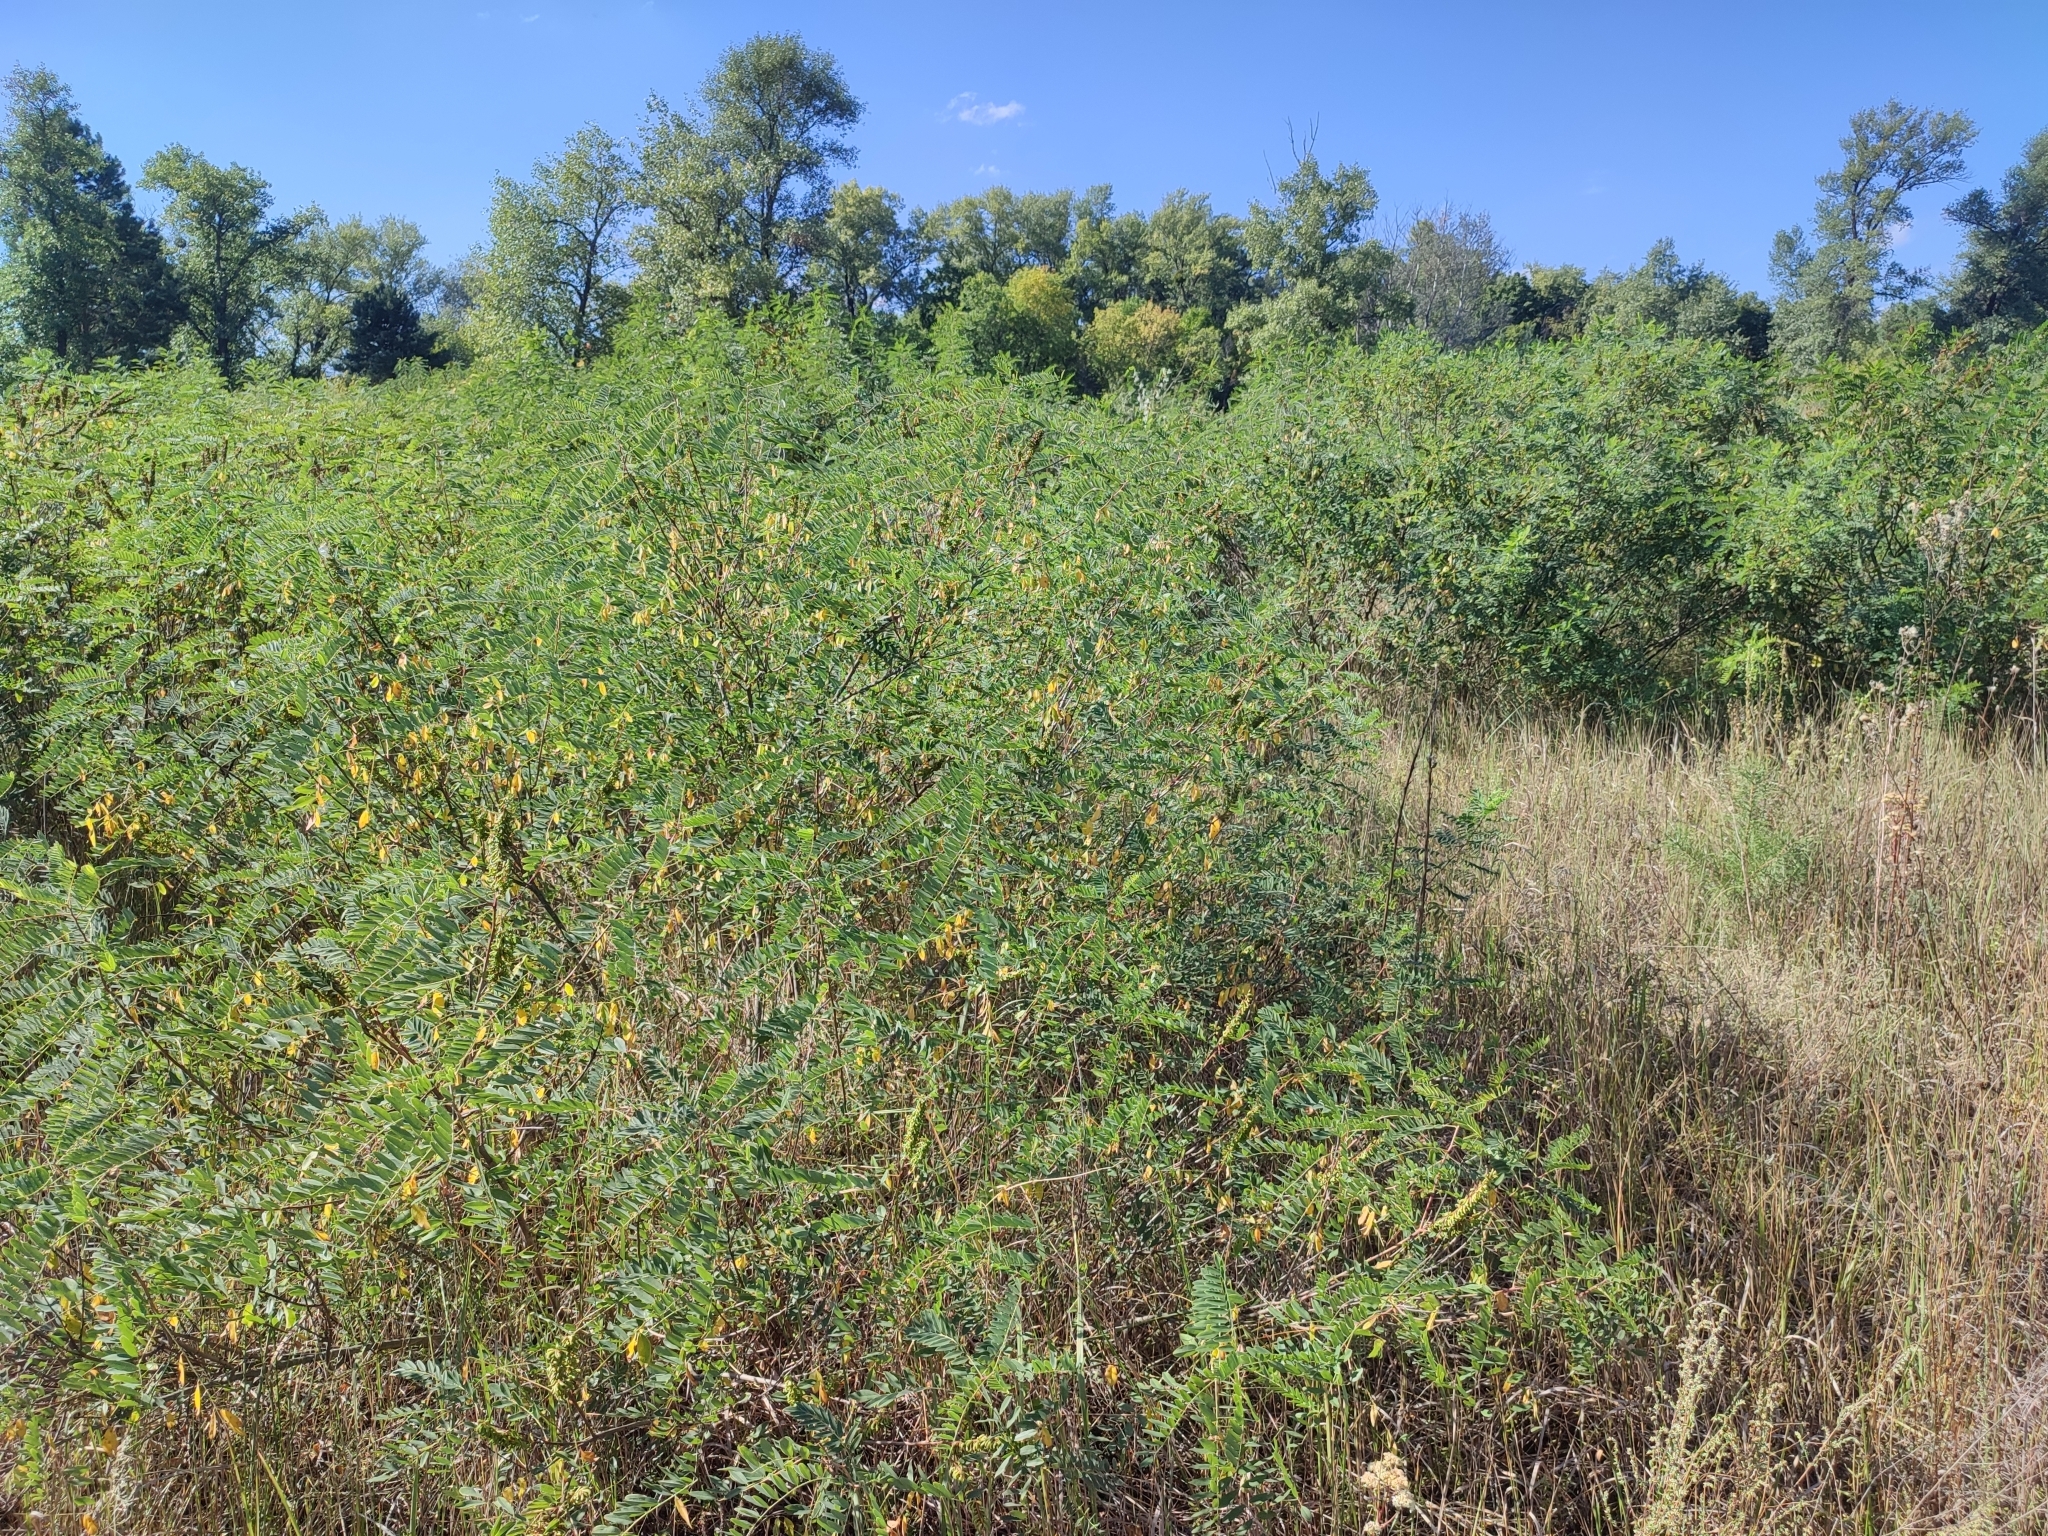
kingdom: Plantae
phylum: Tracheophyta
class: Magnoliopsida
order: Fabales
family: Fabaceae
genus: Amorpha
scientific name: Amorpha fruticosa
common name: False indigo
